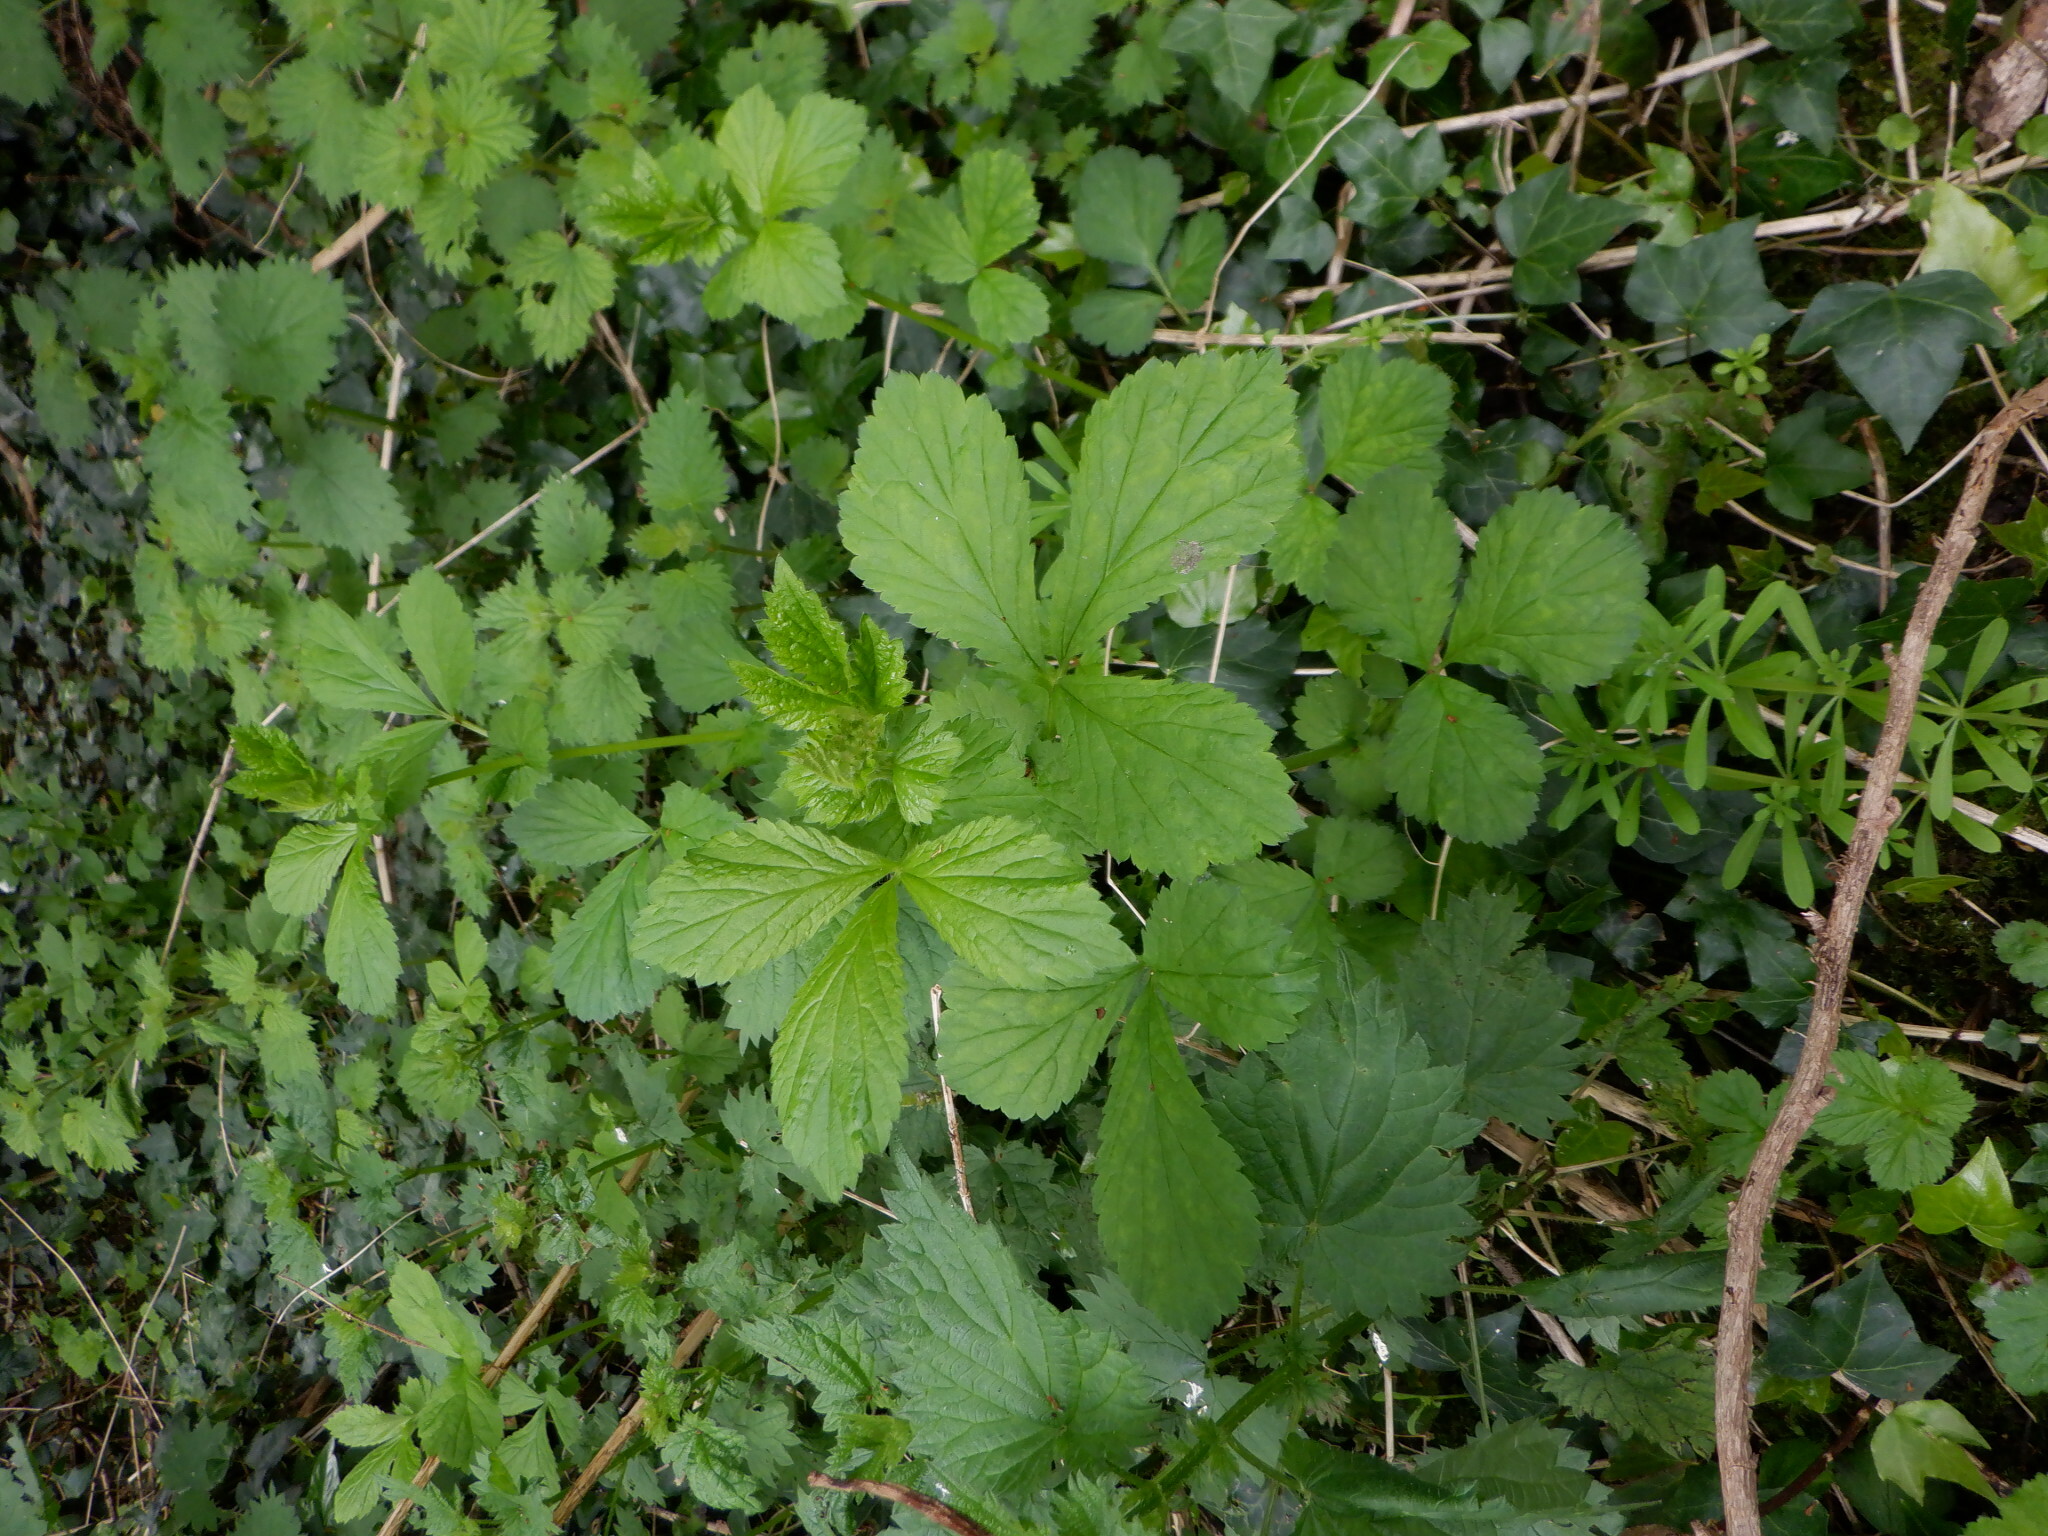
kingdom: Plantae
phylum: Tracheophyta
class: Magnoliopsida
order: Rosales
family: Rosaceae
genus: Geum
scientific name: Geum urbanum
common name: Wood avens
